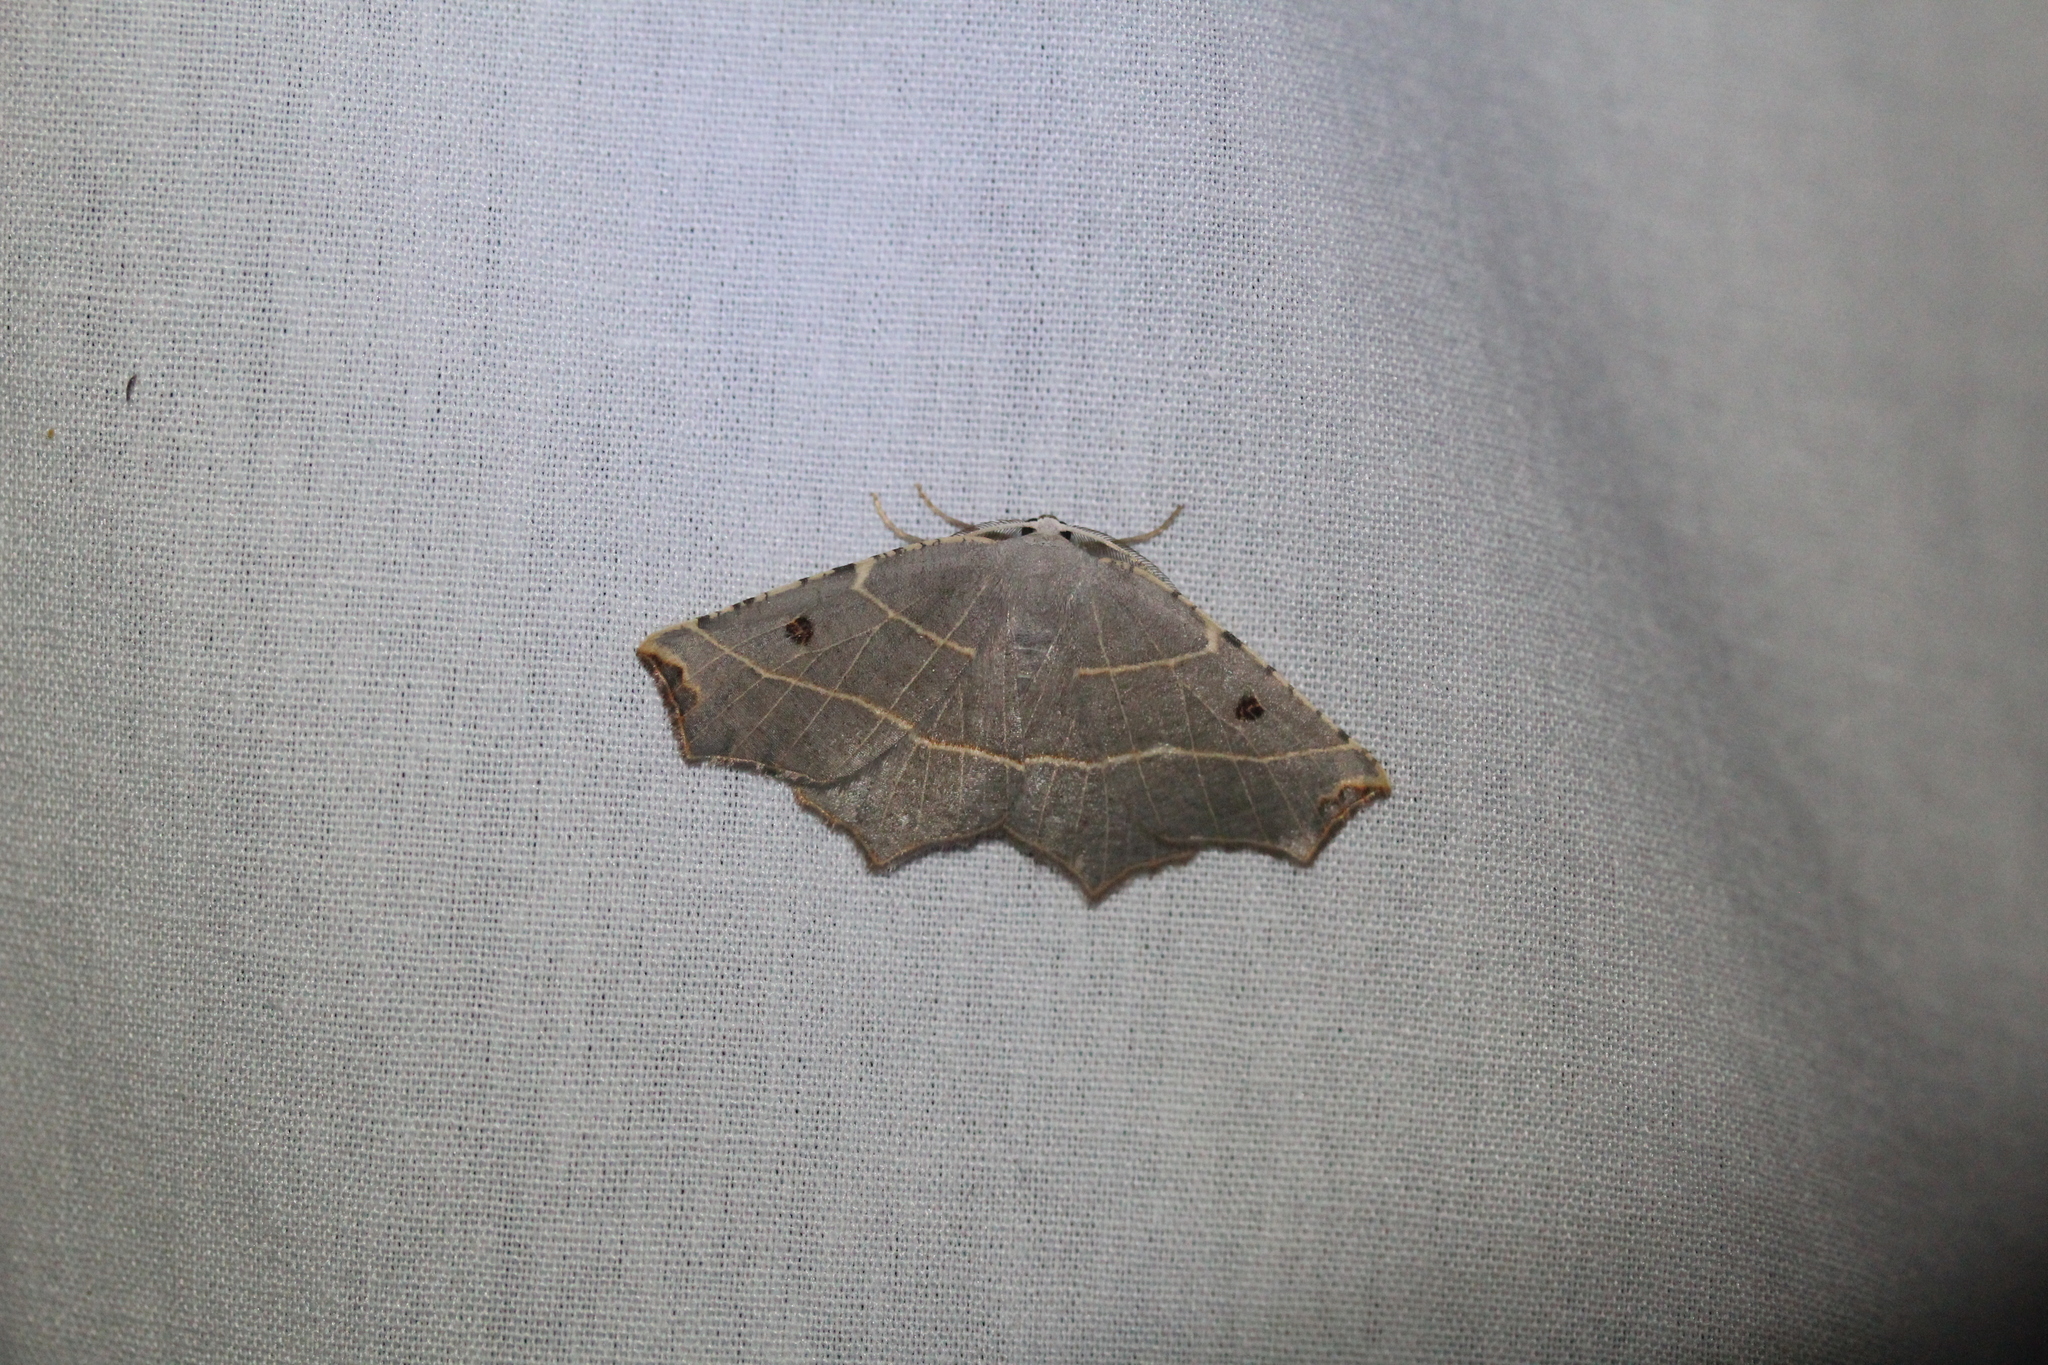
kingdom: Animalia
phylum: Arthropoda
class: Insecta
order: Lepidoptera
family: Geometridae
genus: Metanema
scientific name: Metanema inatomaria
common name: Pale metanema
